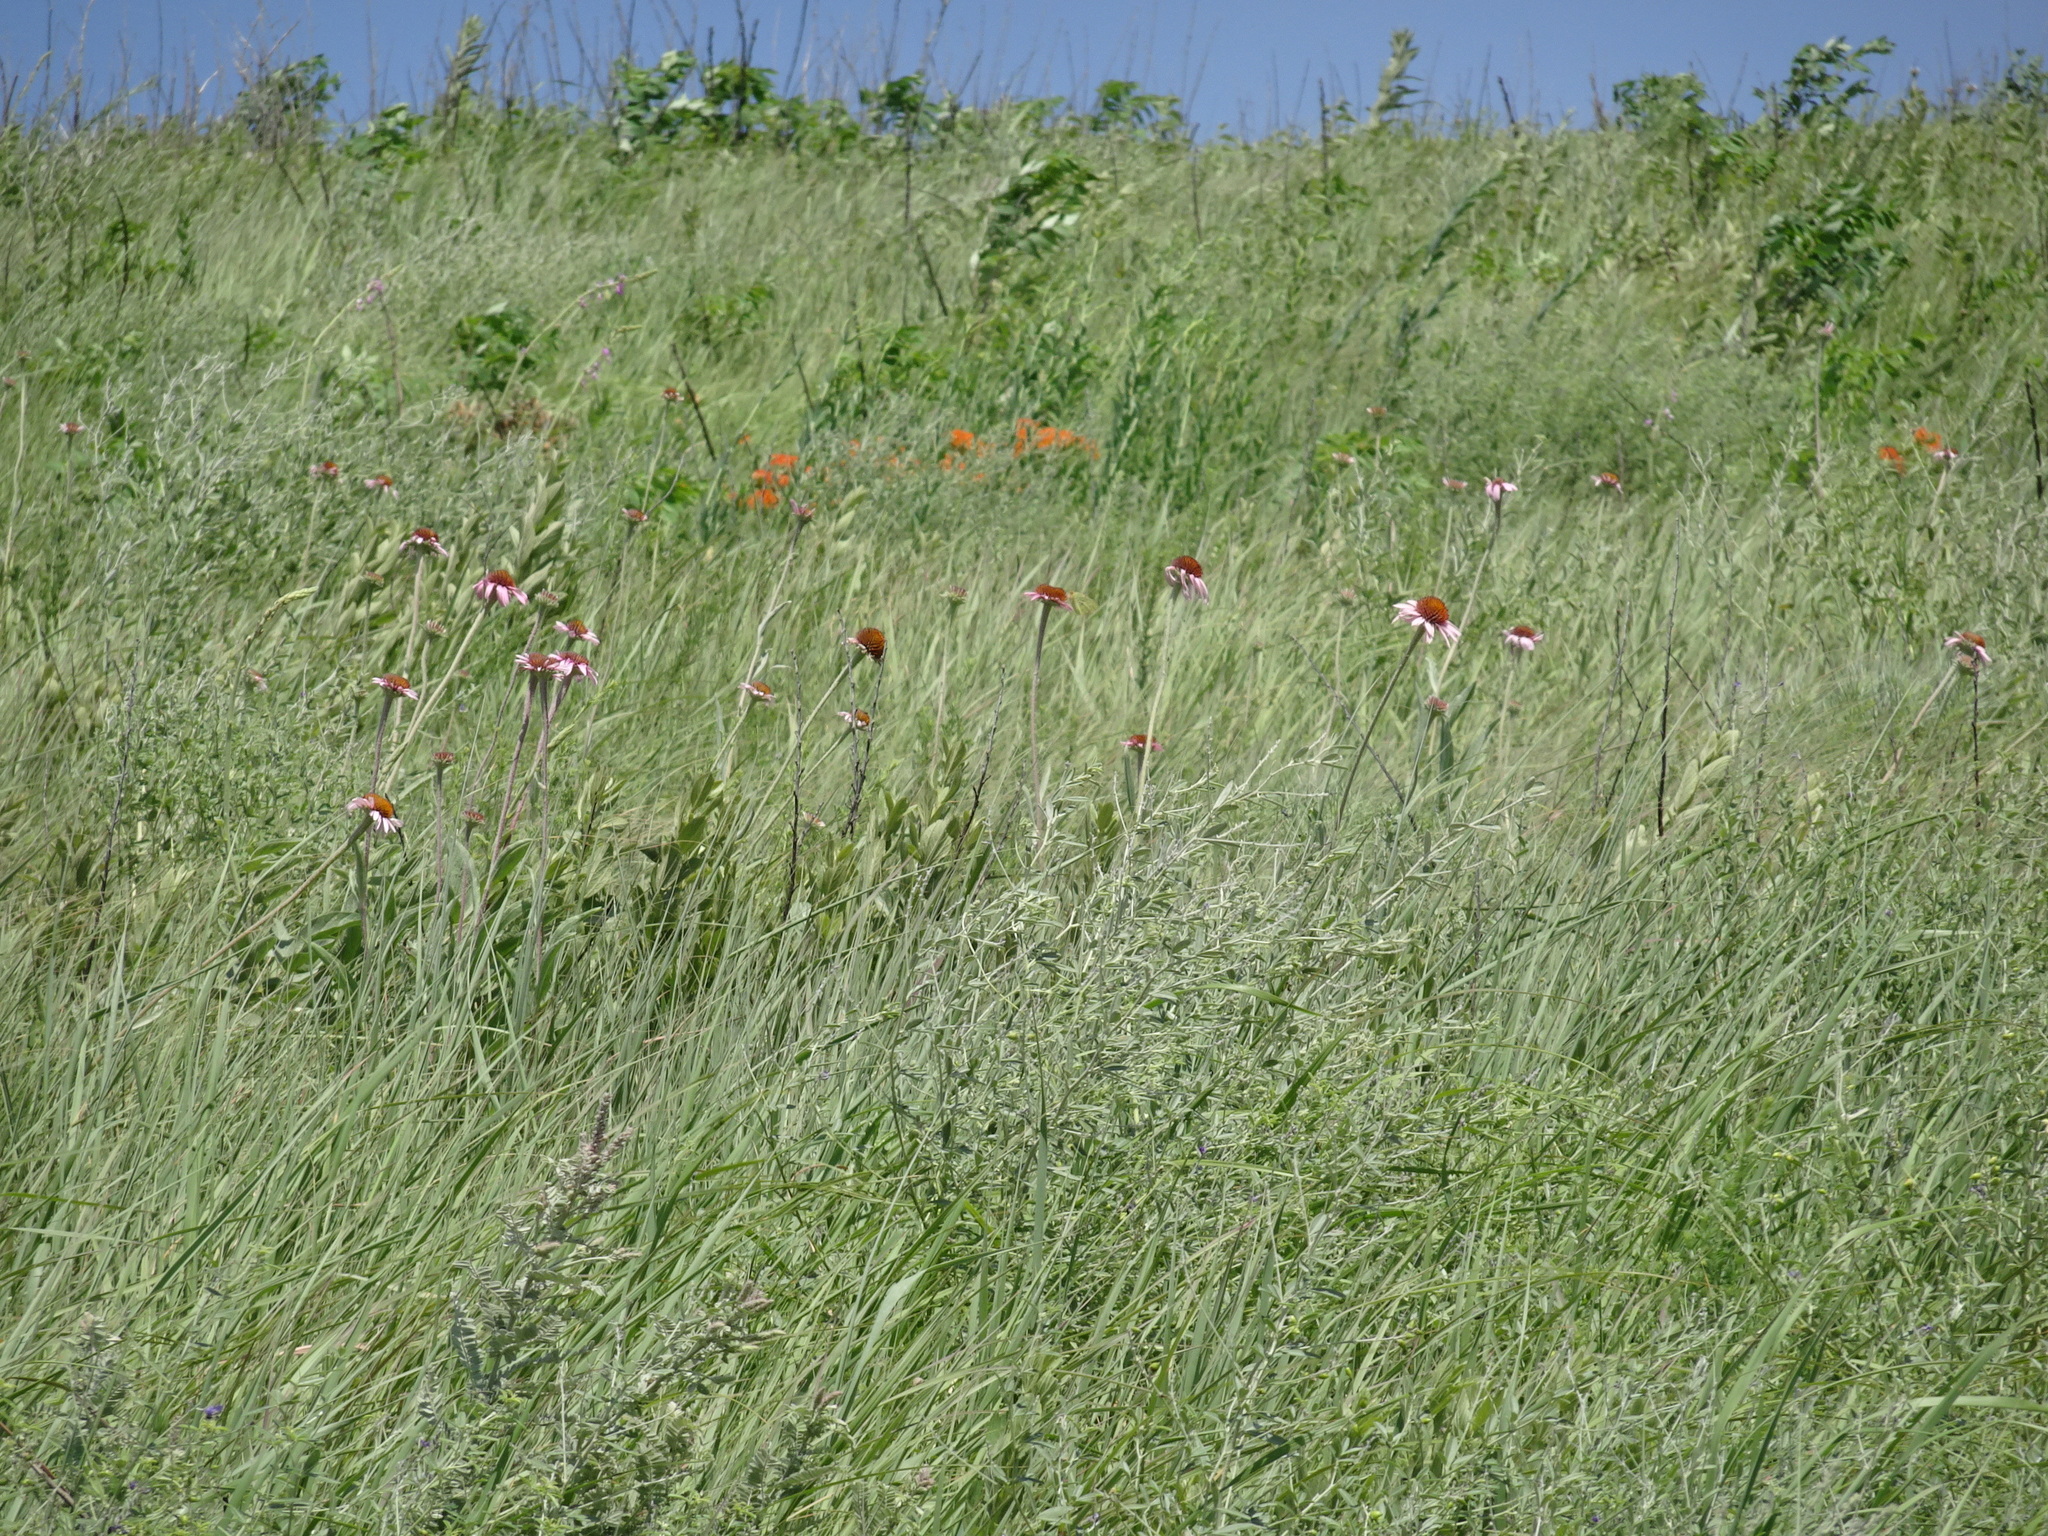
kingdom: Plantae
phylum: Tracheophyta
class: Magnoliopsida
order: Asterales
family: Asteraceae
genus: Echinacea
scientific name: Echinacea angustifolia
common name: Black-sampson echinacea
